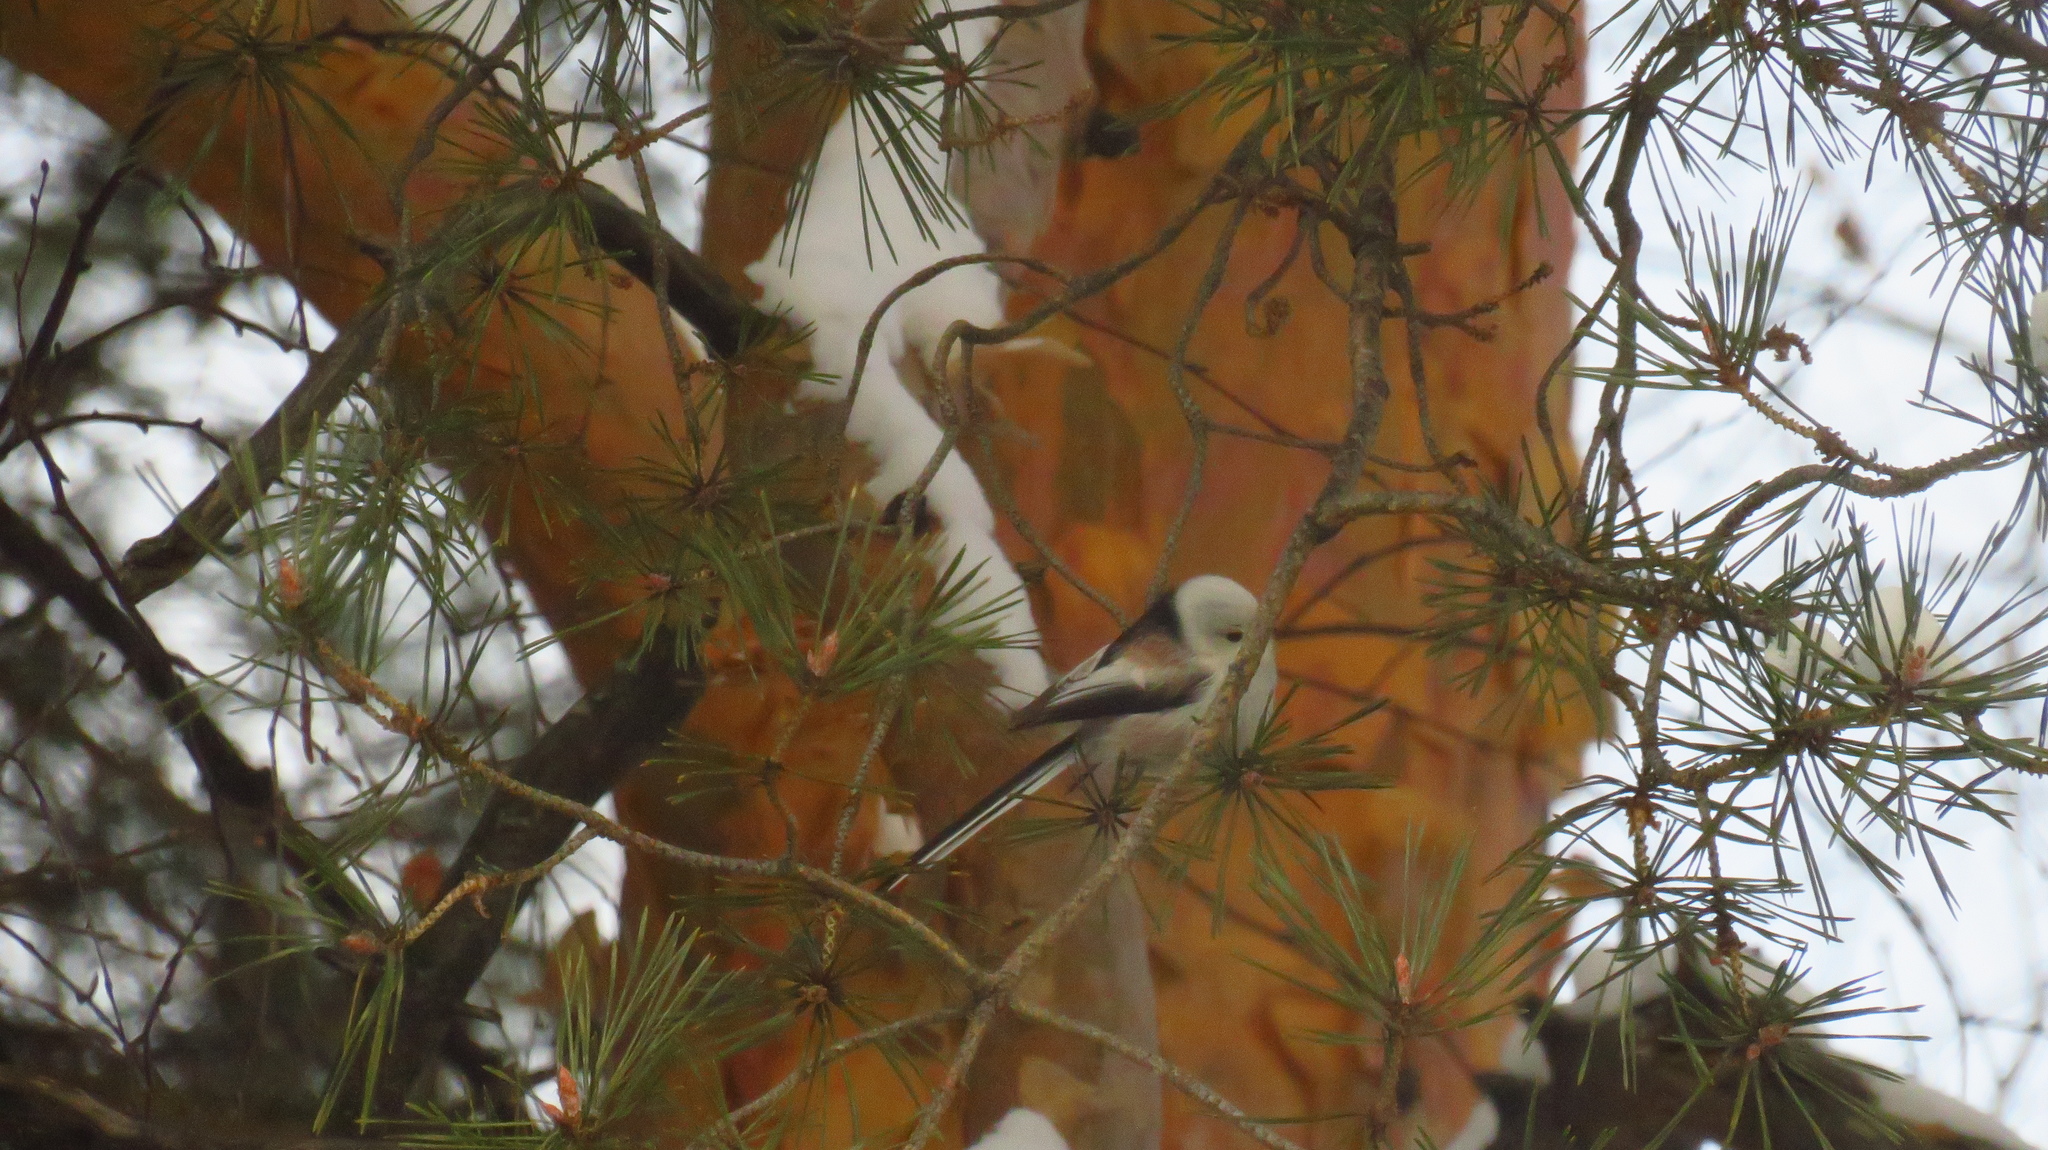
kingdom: Animalia
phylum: Chordata
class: Aves
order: Passeriformes
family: Aegithalidae
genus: Aegithalos
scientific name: Aegithalos caudatus
